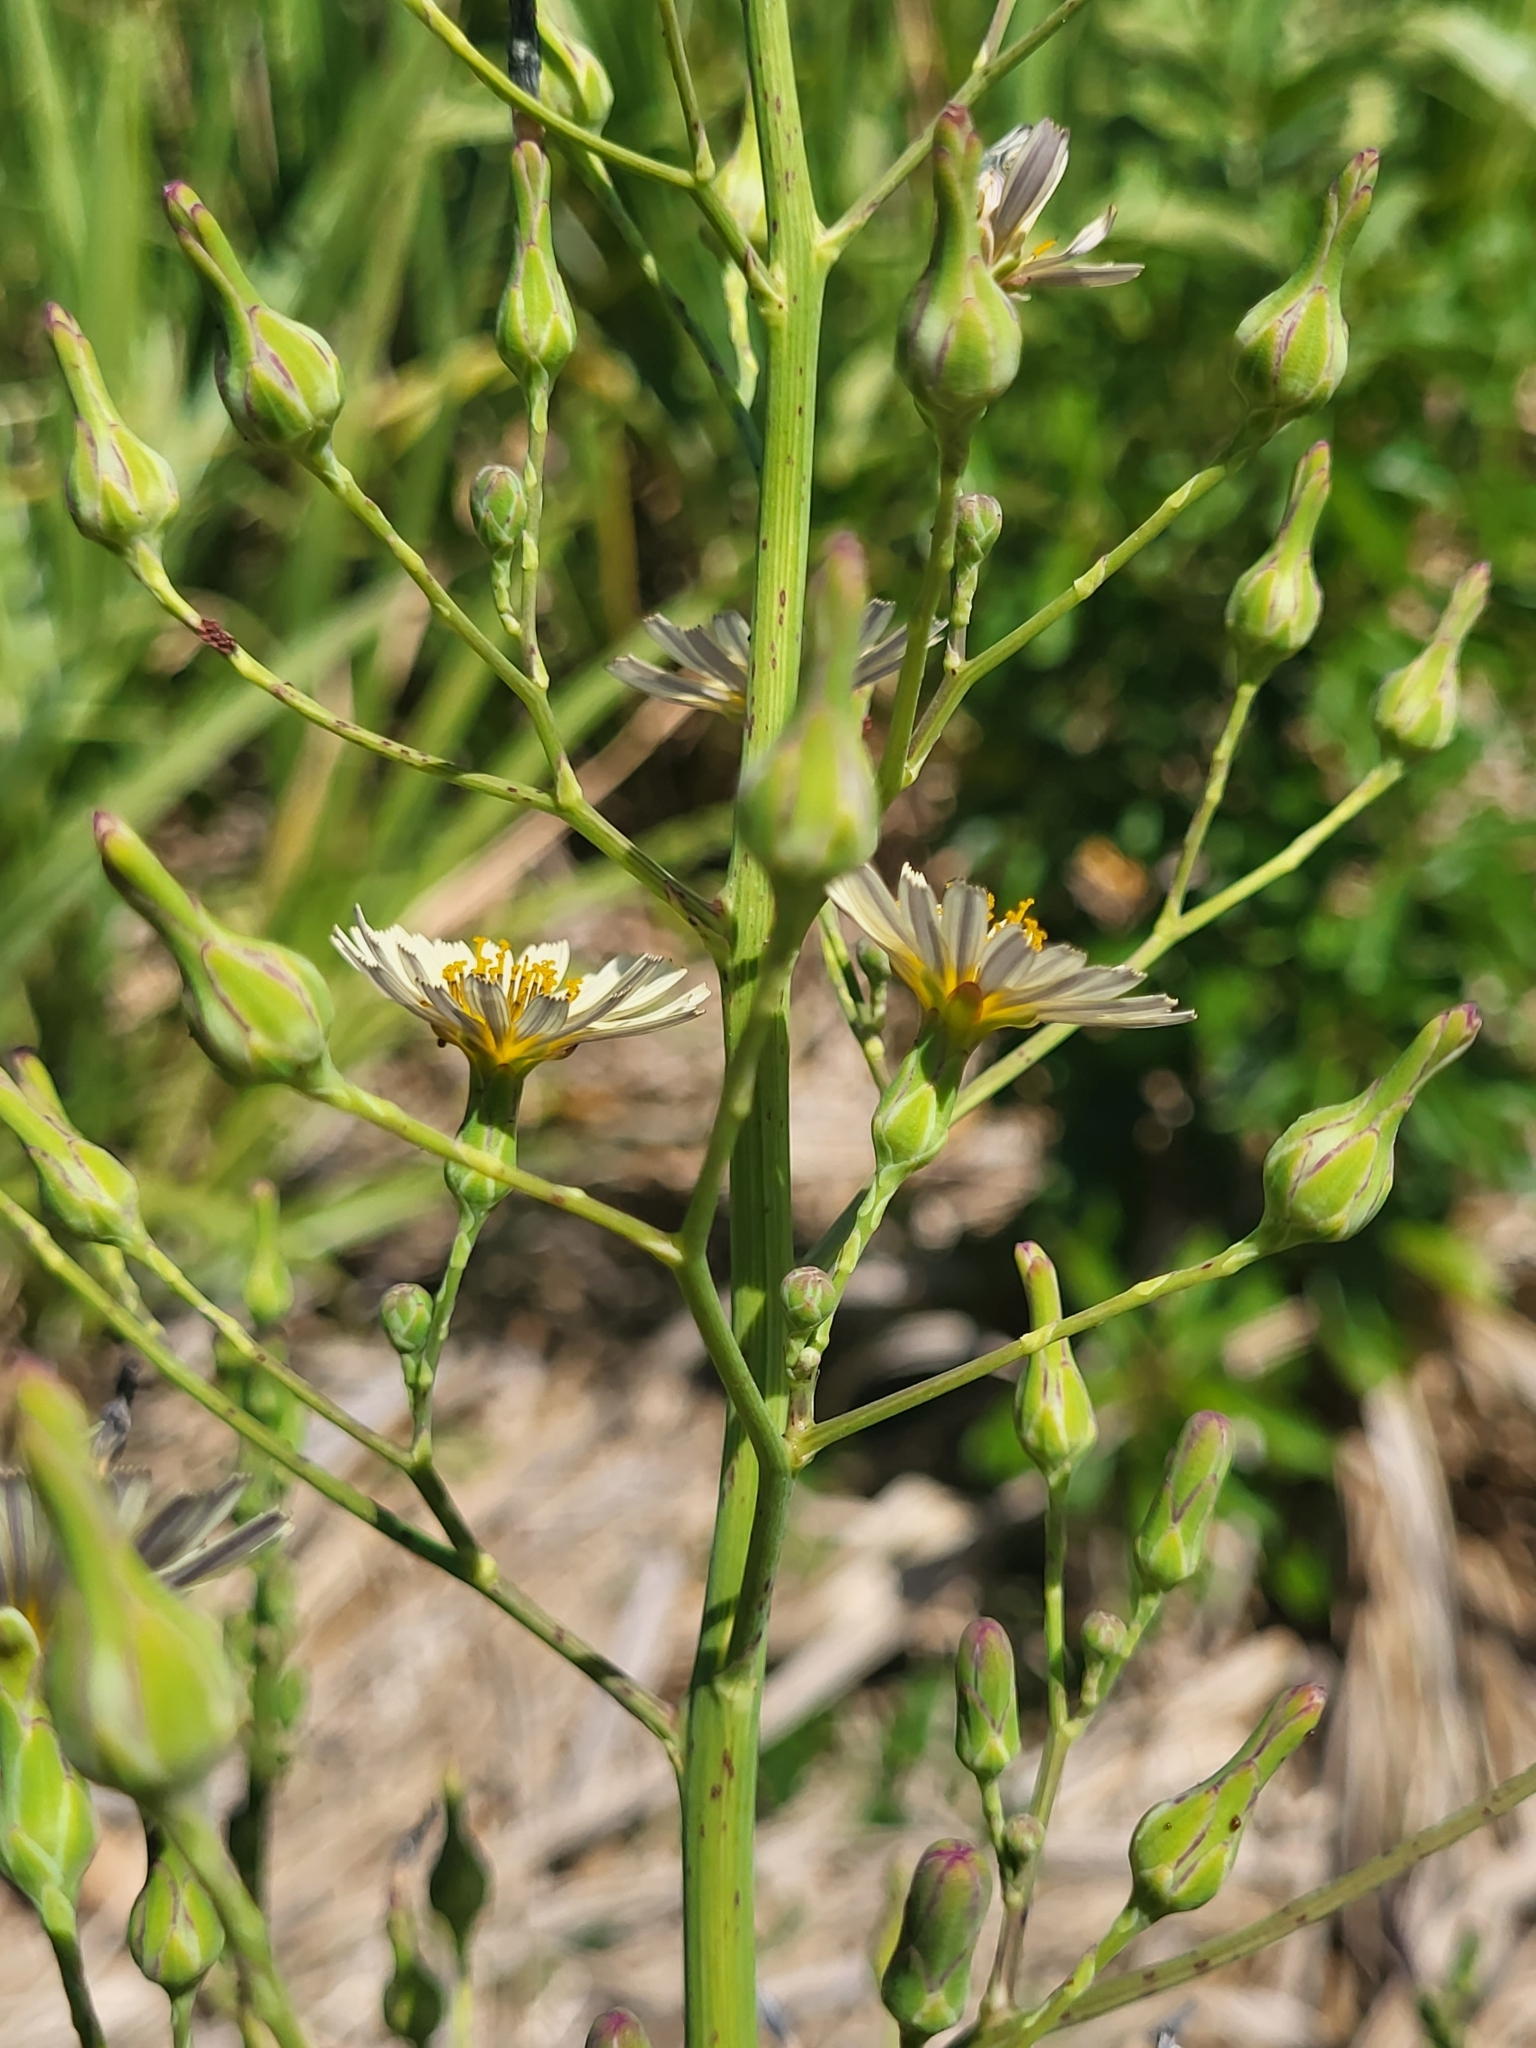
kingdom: Plantae
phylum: Tracheophyta
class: Magnoliopsida
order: Asterales
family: Asteraceae
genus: Lactuca
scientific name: Lactuca indica
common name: Wild lettuce
